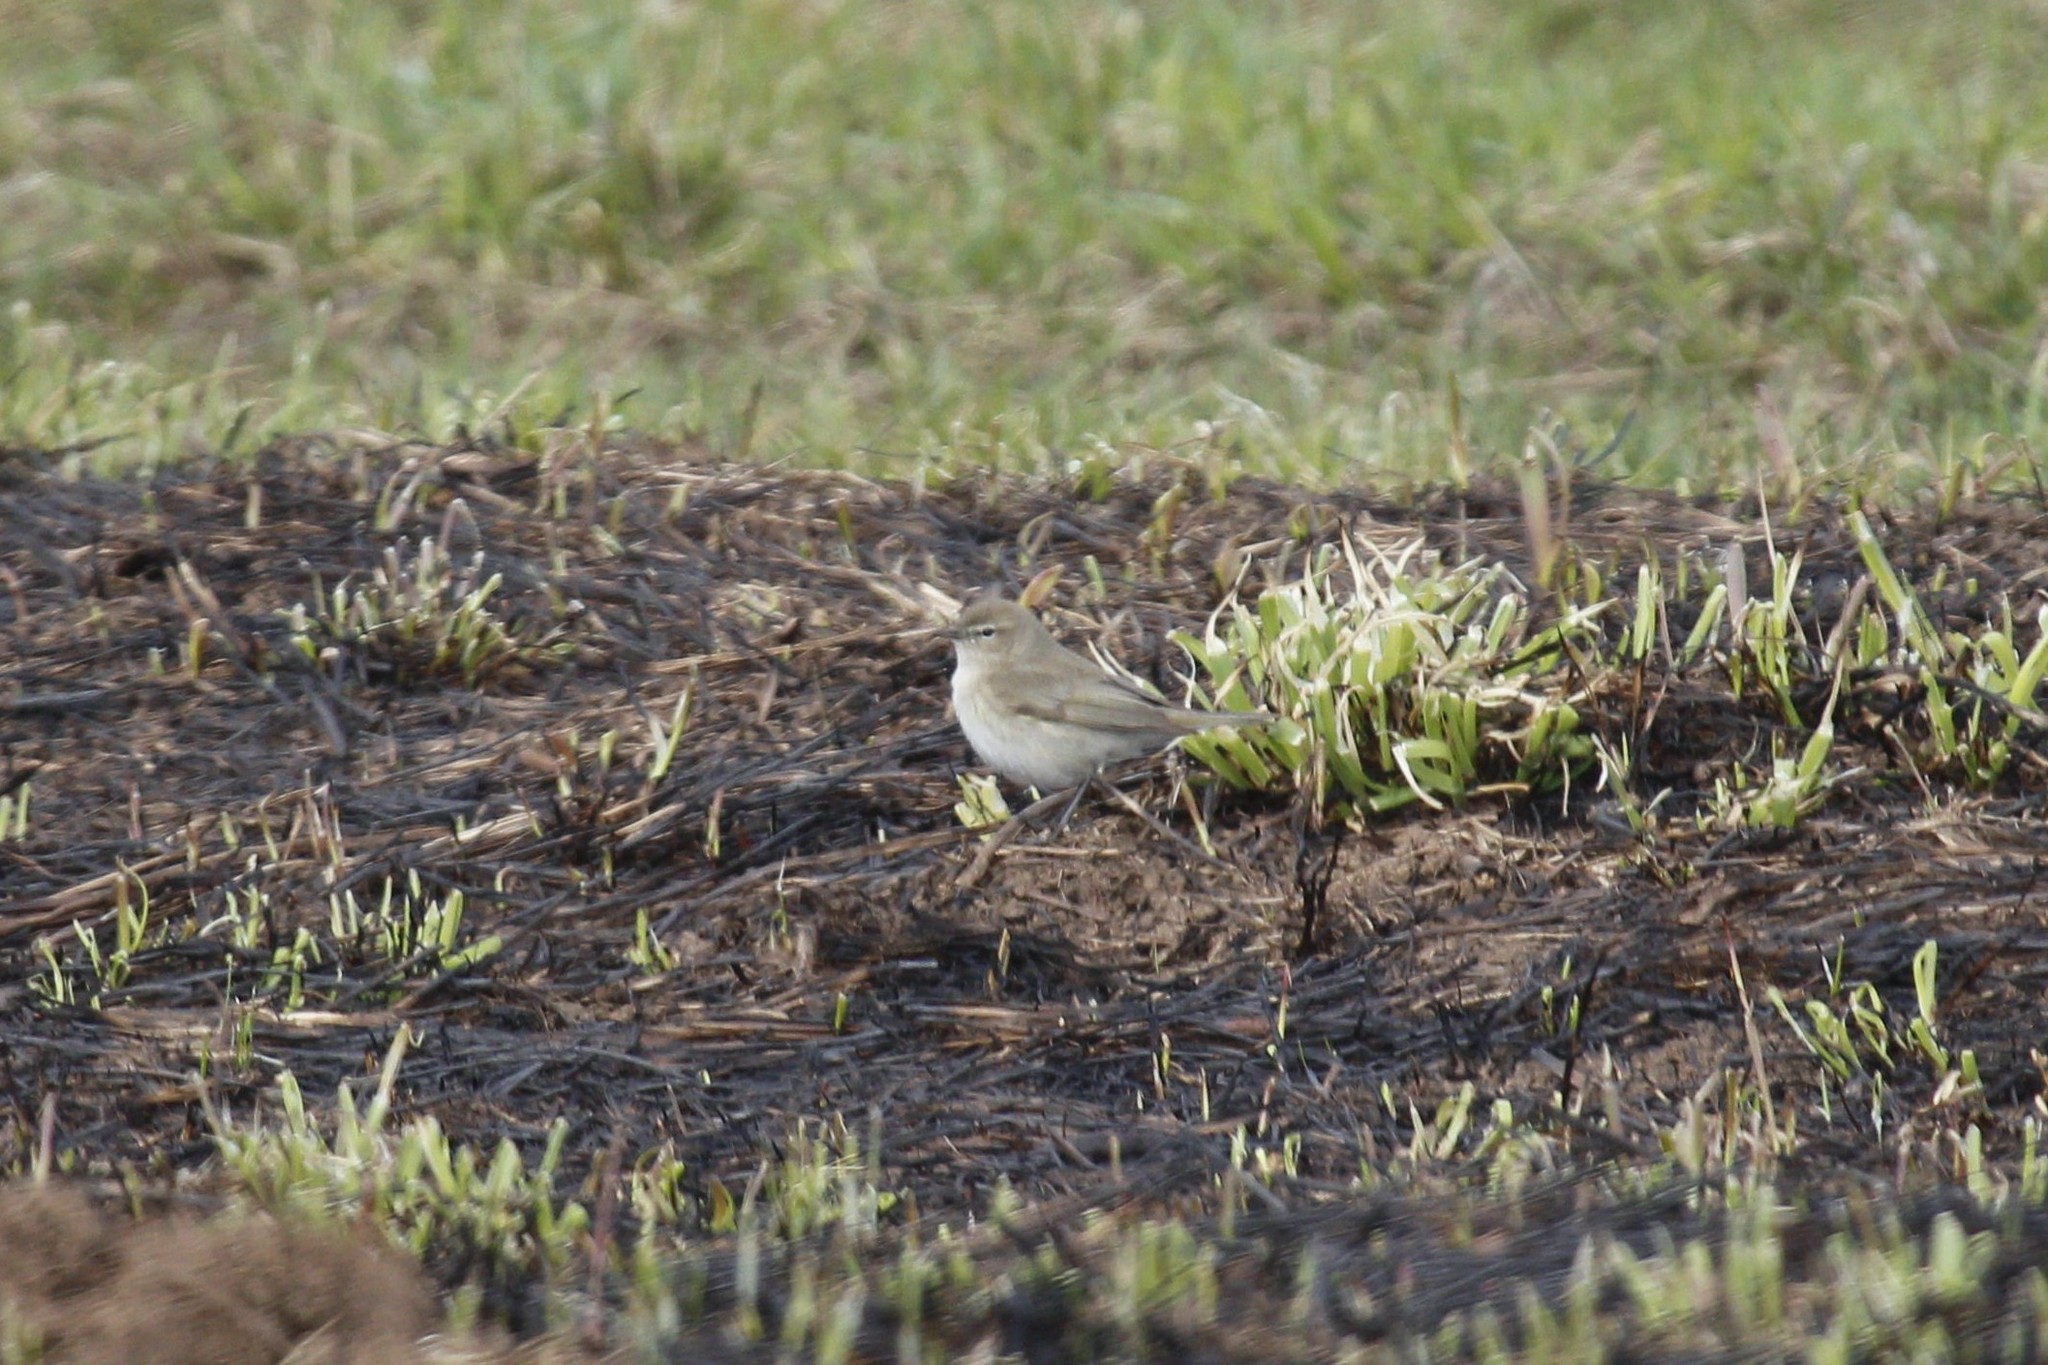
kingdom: Animalia
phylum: Chordata
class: Aves
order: Passeriformes
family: Phylloscopidae
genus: Phylloscopus
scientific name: Phylloscopus collybita
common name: Common chiffchaff
